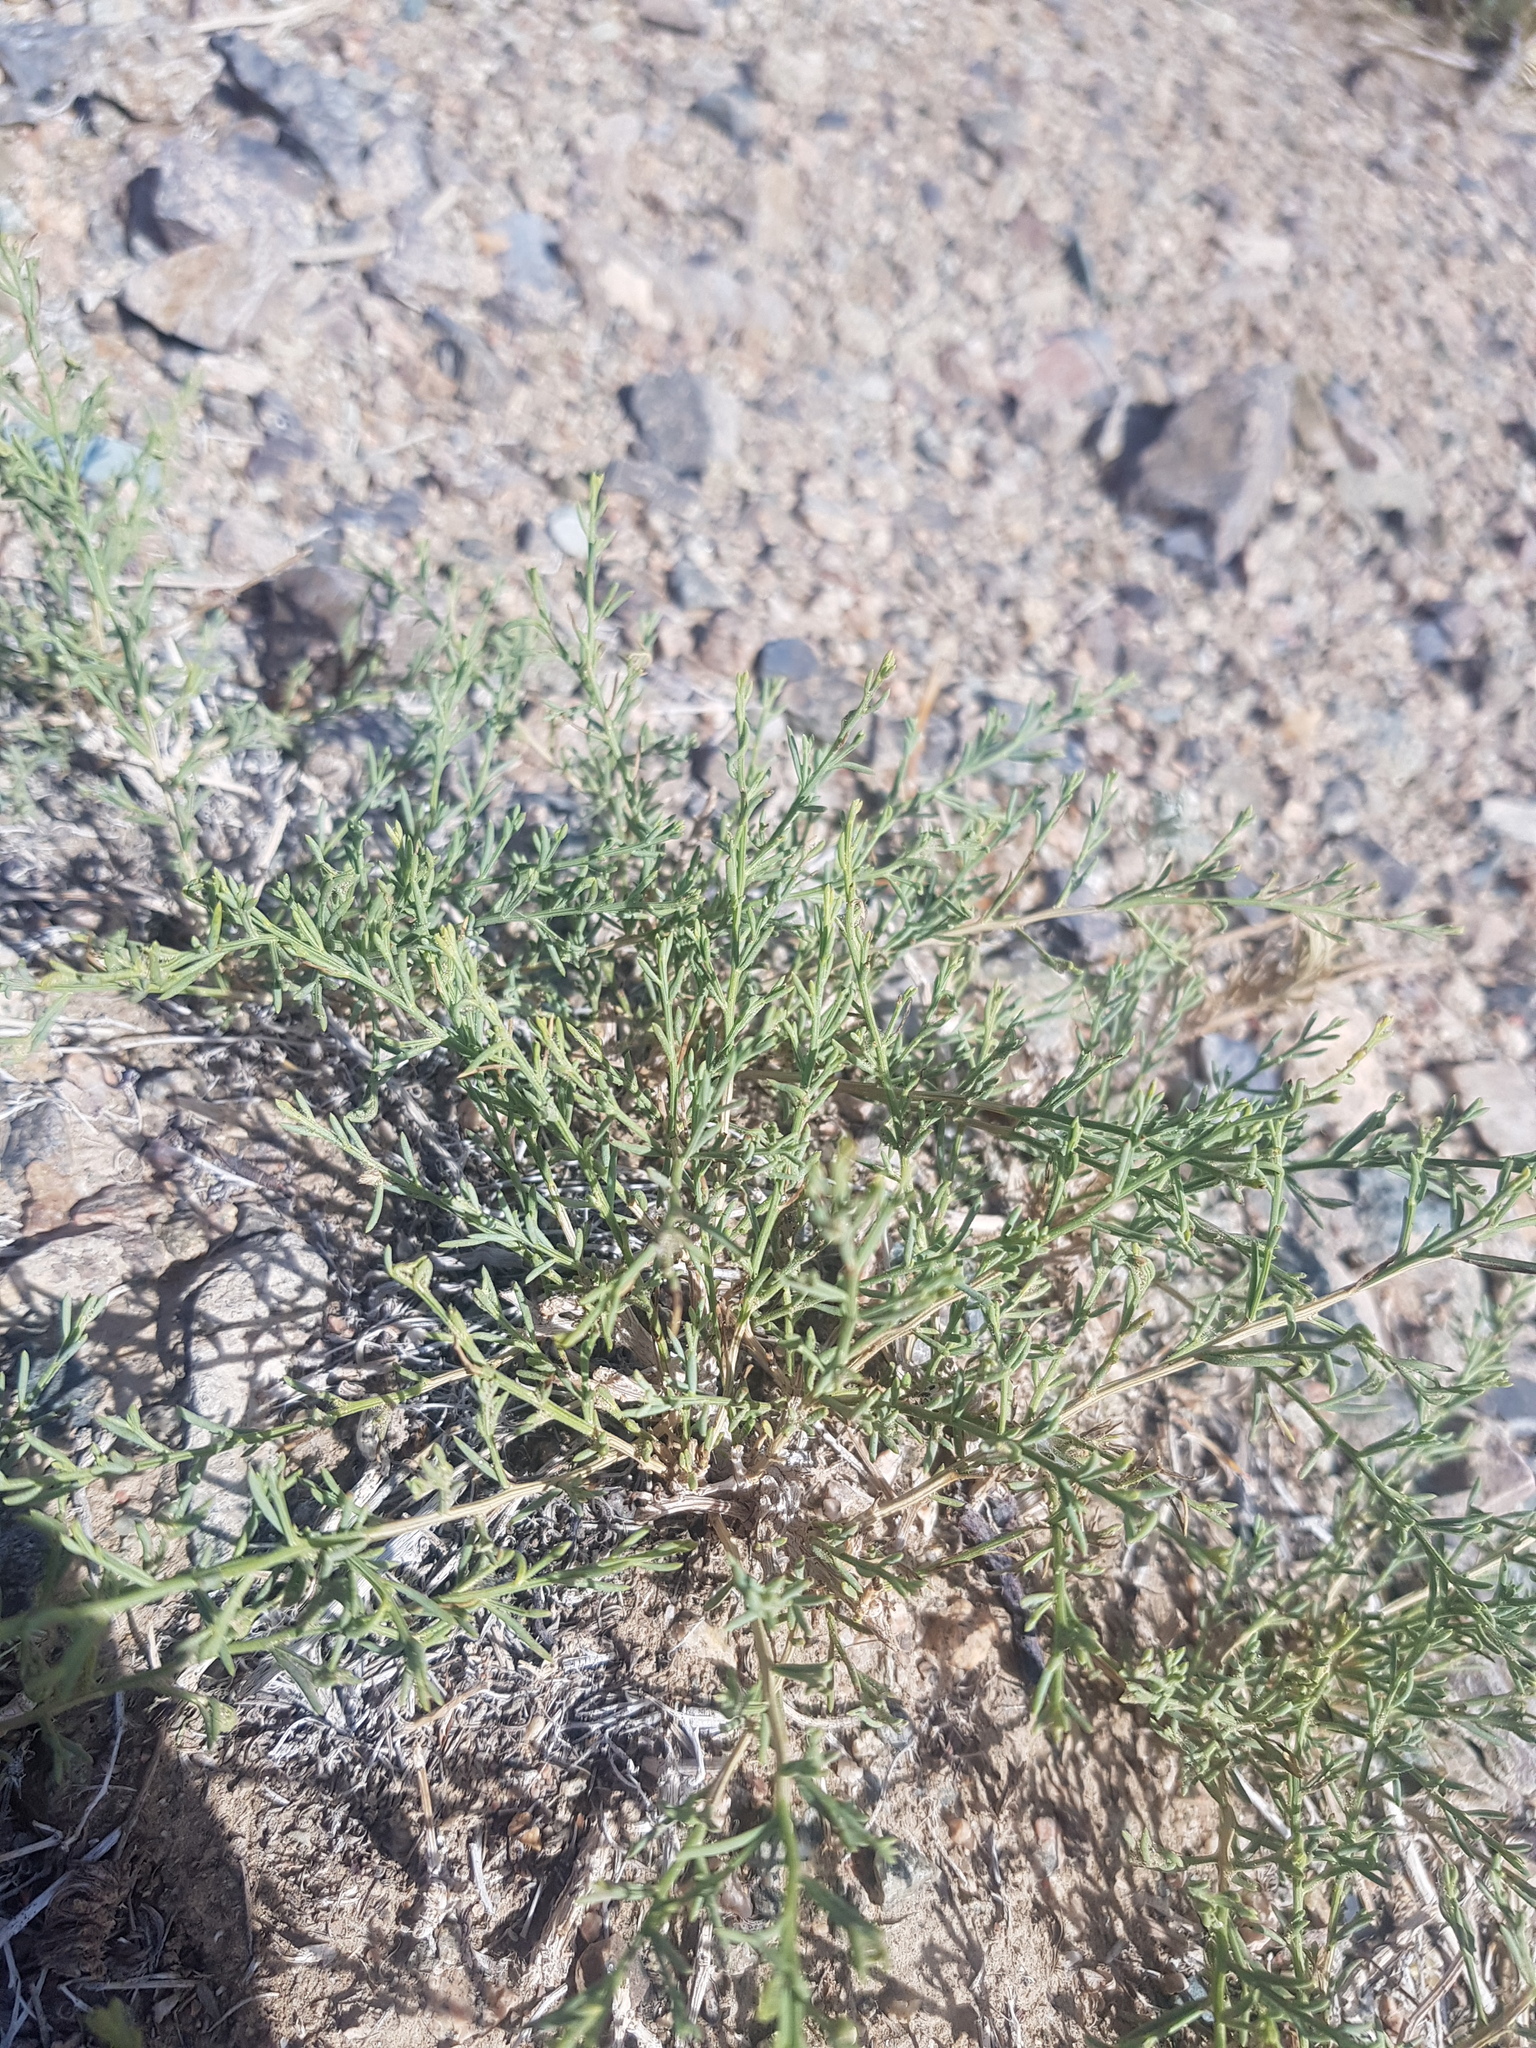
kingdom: Plantae
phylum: Tracheophyta
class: Magnoliopsida
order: Caryophyllales
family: Amaranthaceae
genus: Sympegma
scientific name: Sympegma regelii
